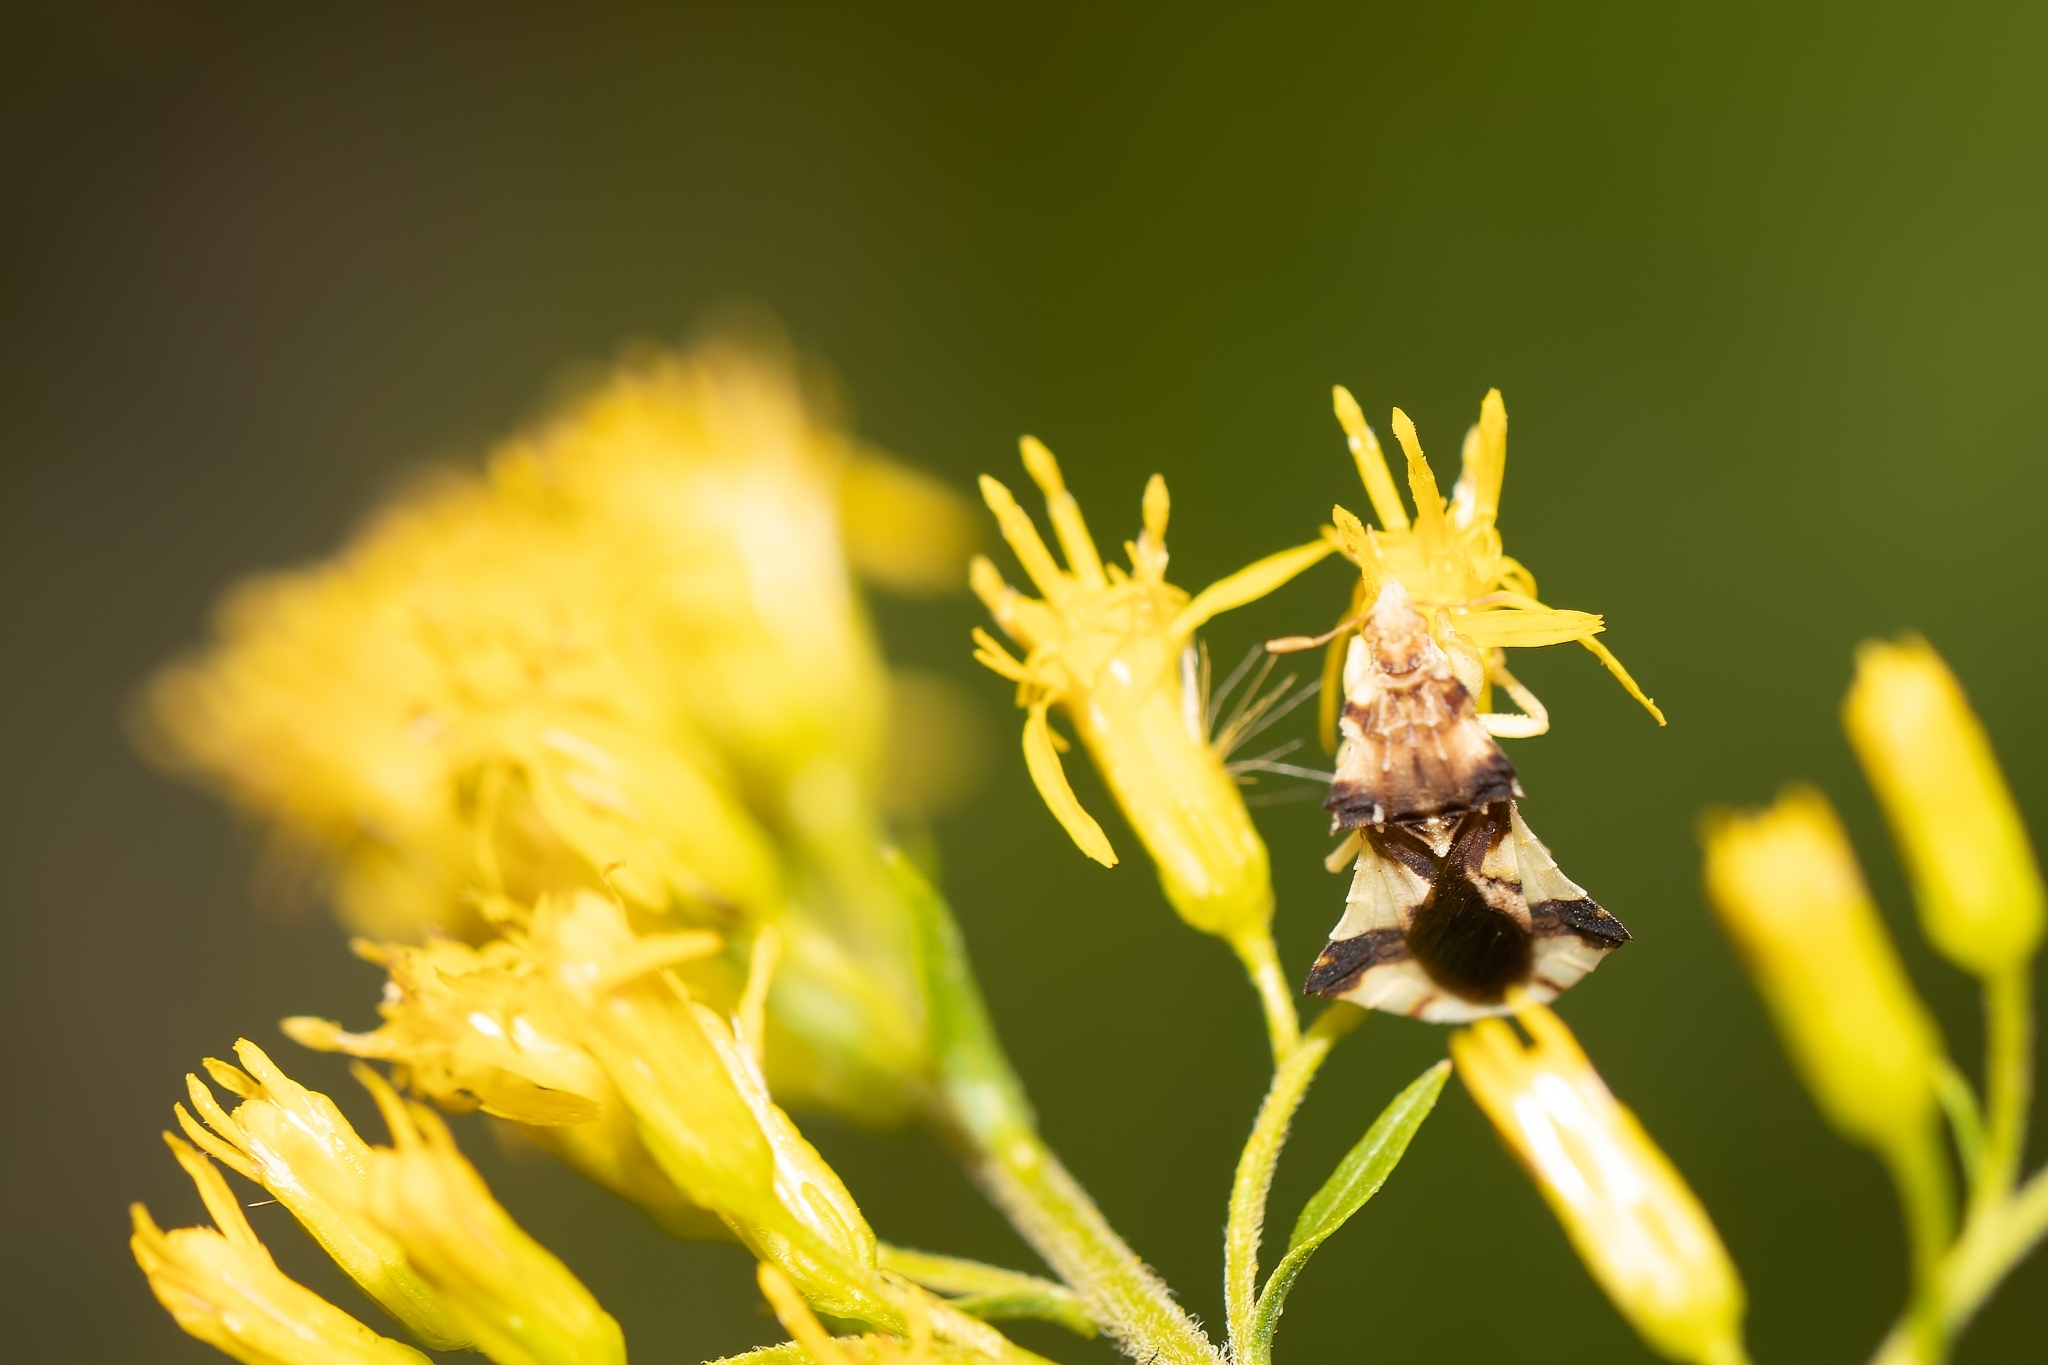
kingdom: Animalia
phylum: Arthropoda
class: Insecta
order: Hemiptera
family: Reduviidae
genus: Phymata
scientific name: Phymata fasciata
